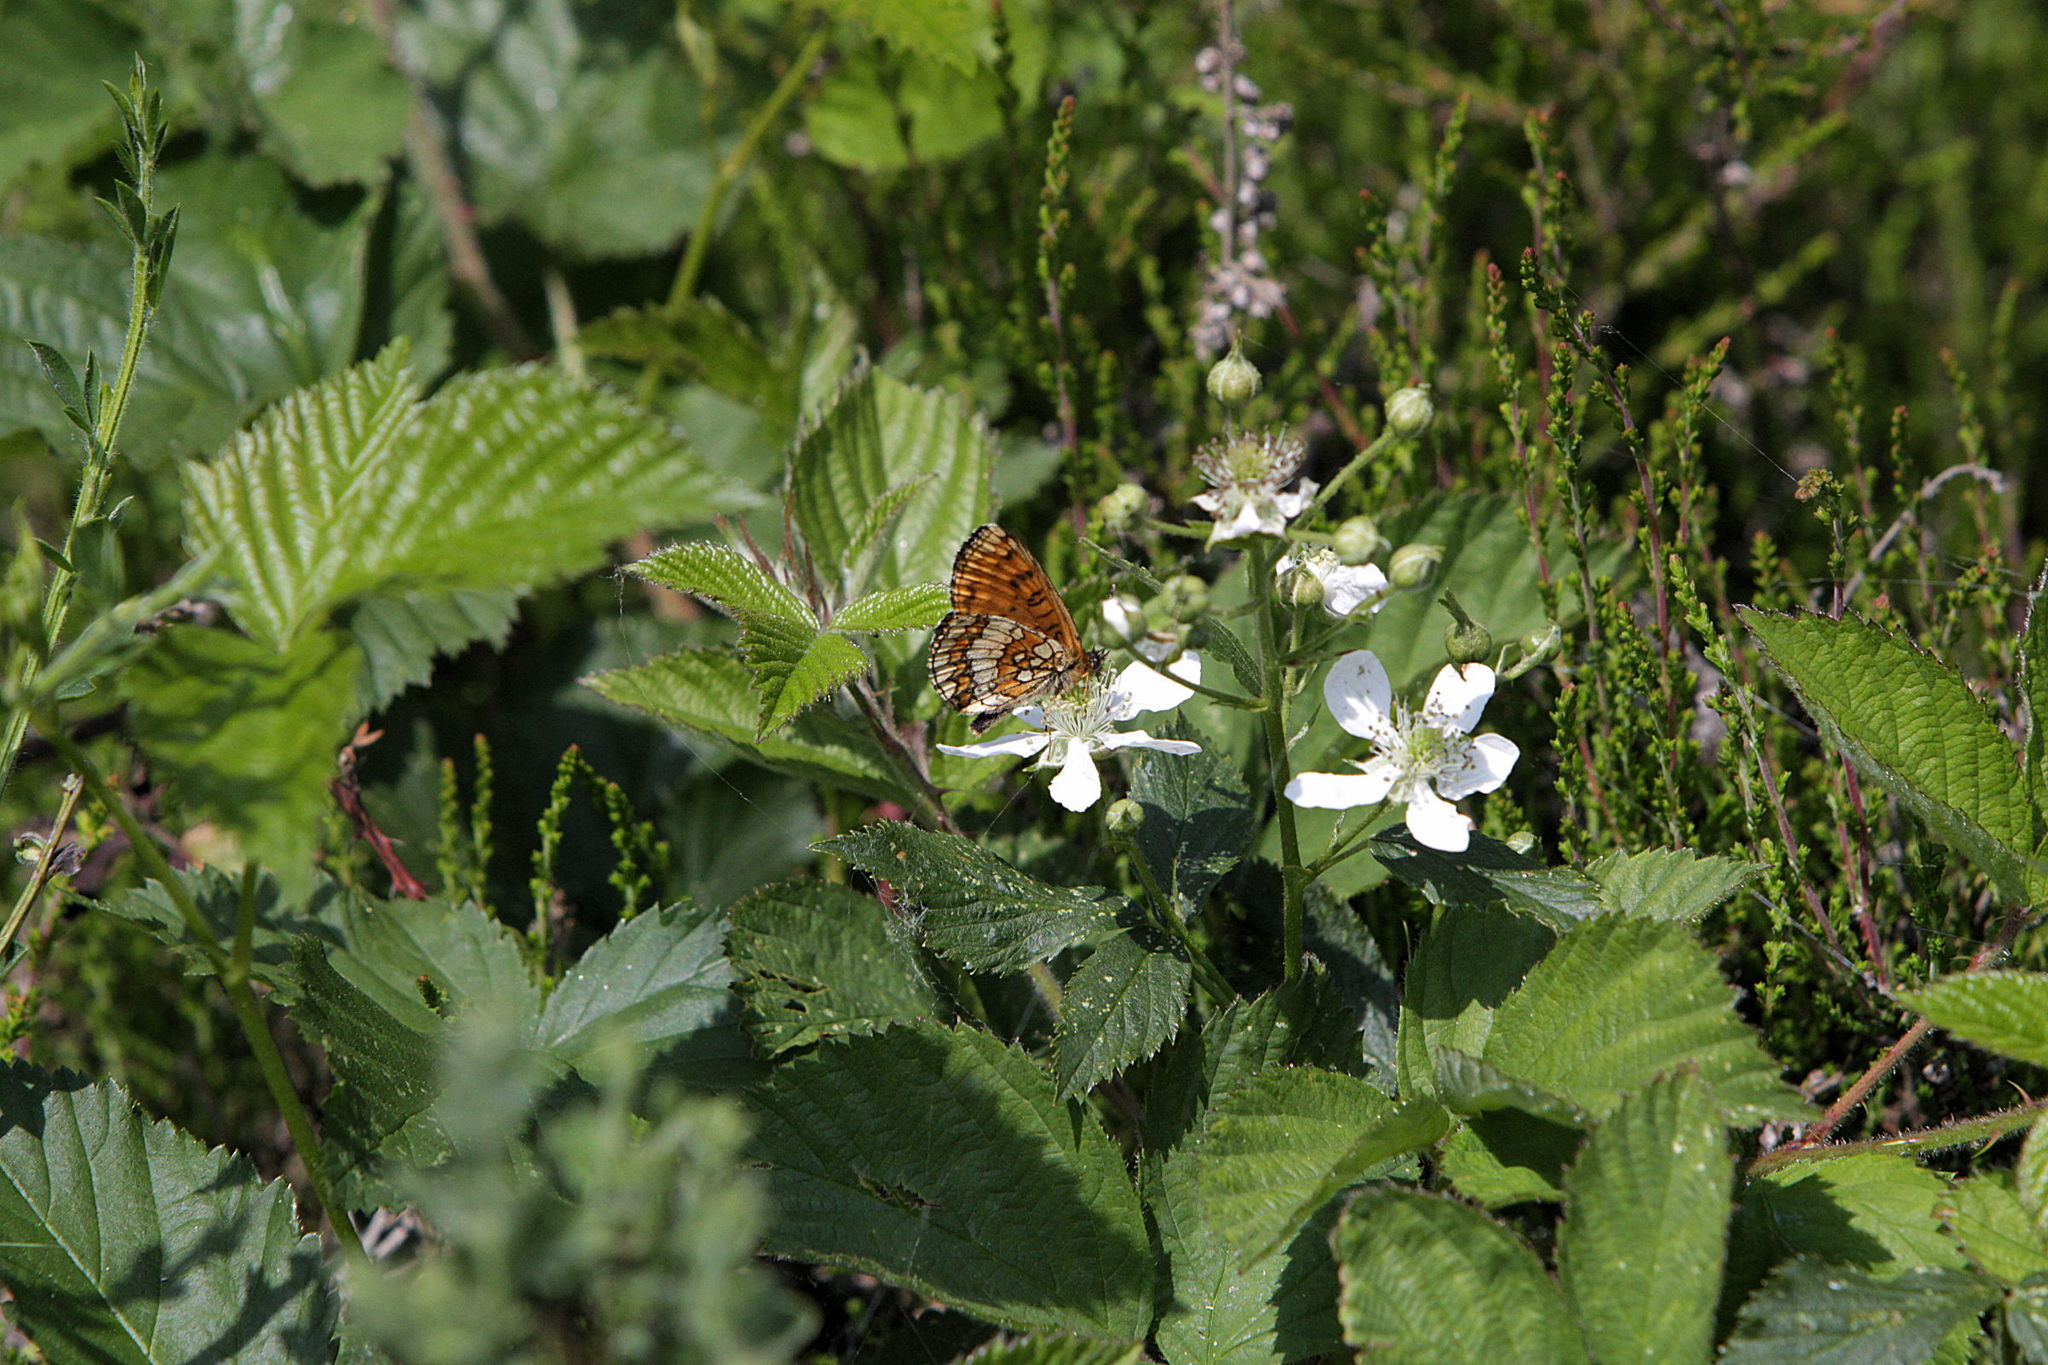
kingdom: Animalia
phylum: Arthropoda
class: Insecta
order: Lepidoptera
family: Nymphalidae
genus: Melitaea
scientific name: Melitaea athalia
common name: Heath fritillary
